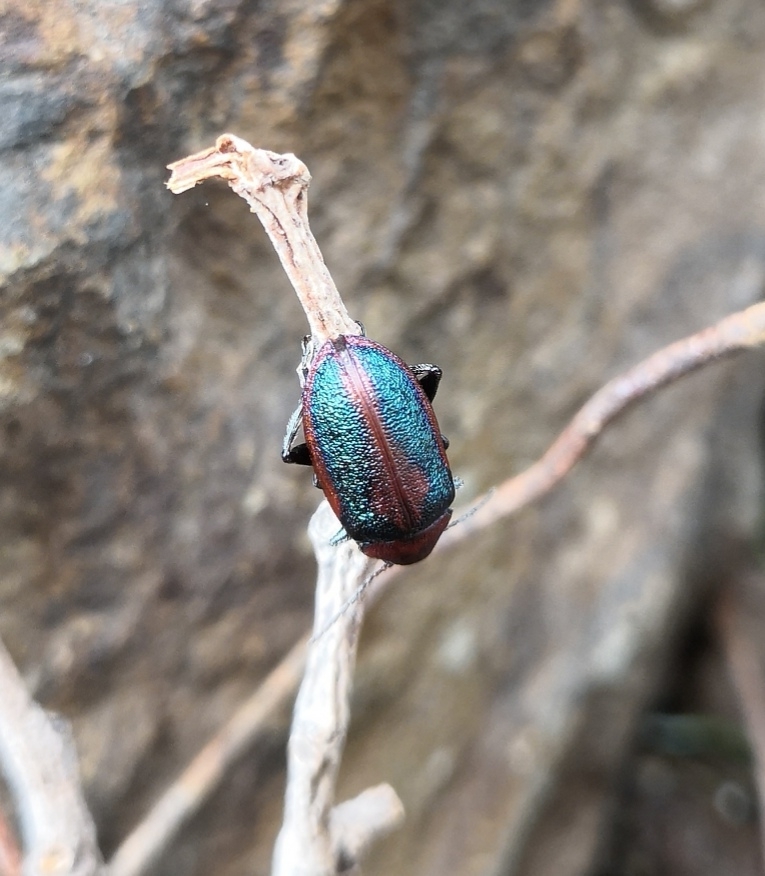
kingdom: Animalia
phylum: Arthropoda
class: Insecta
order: Coleoptera
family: Chrysomelidae
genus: Promecosoma
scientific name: Promecosoma
